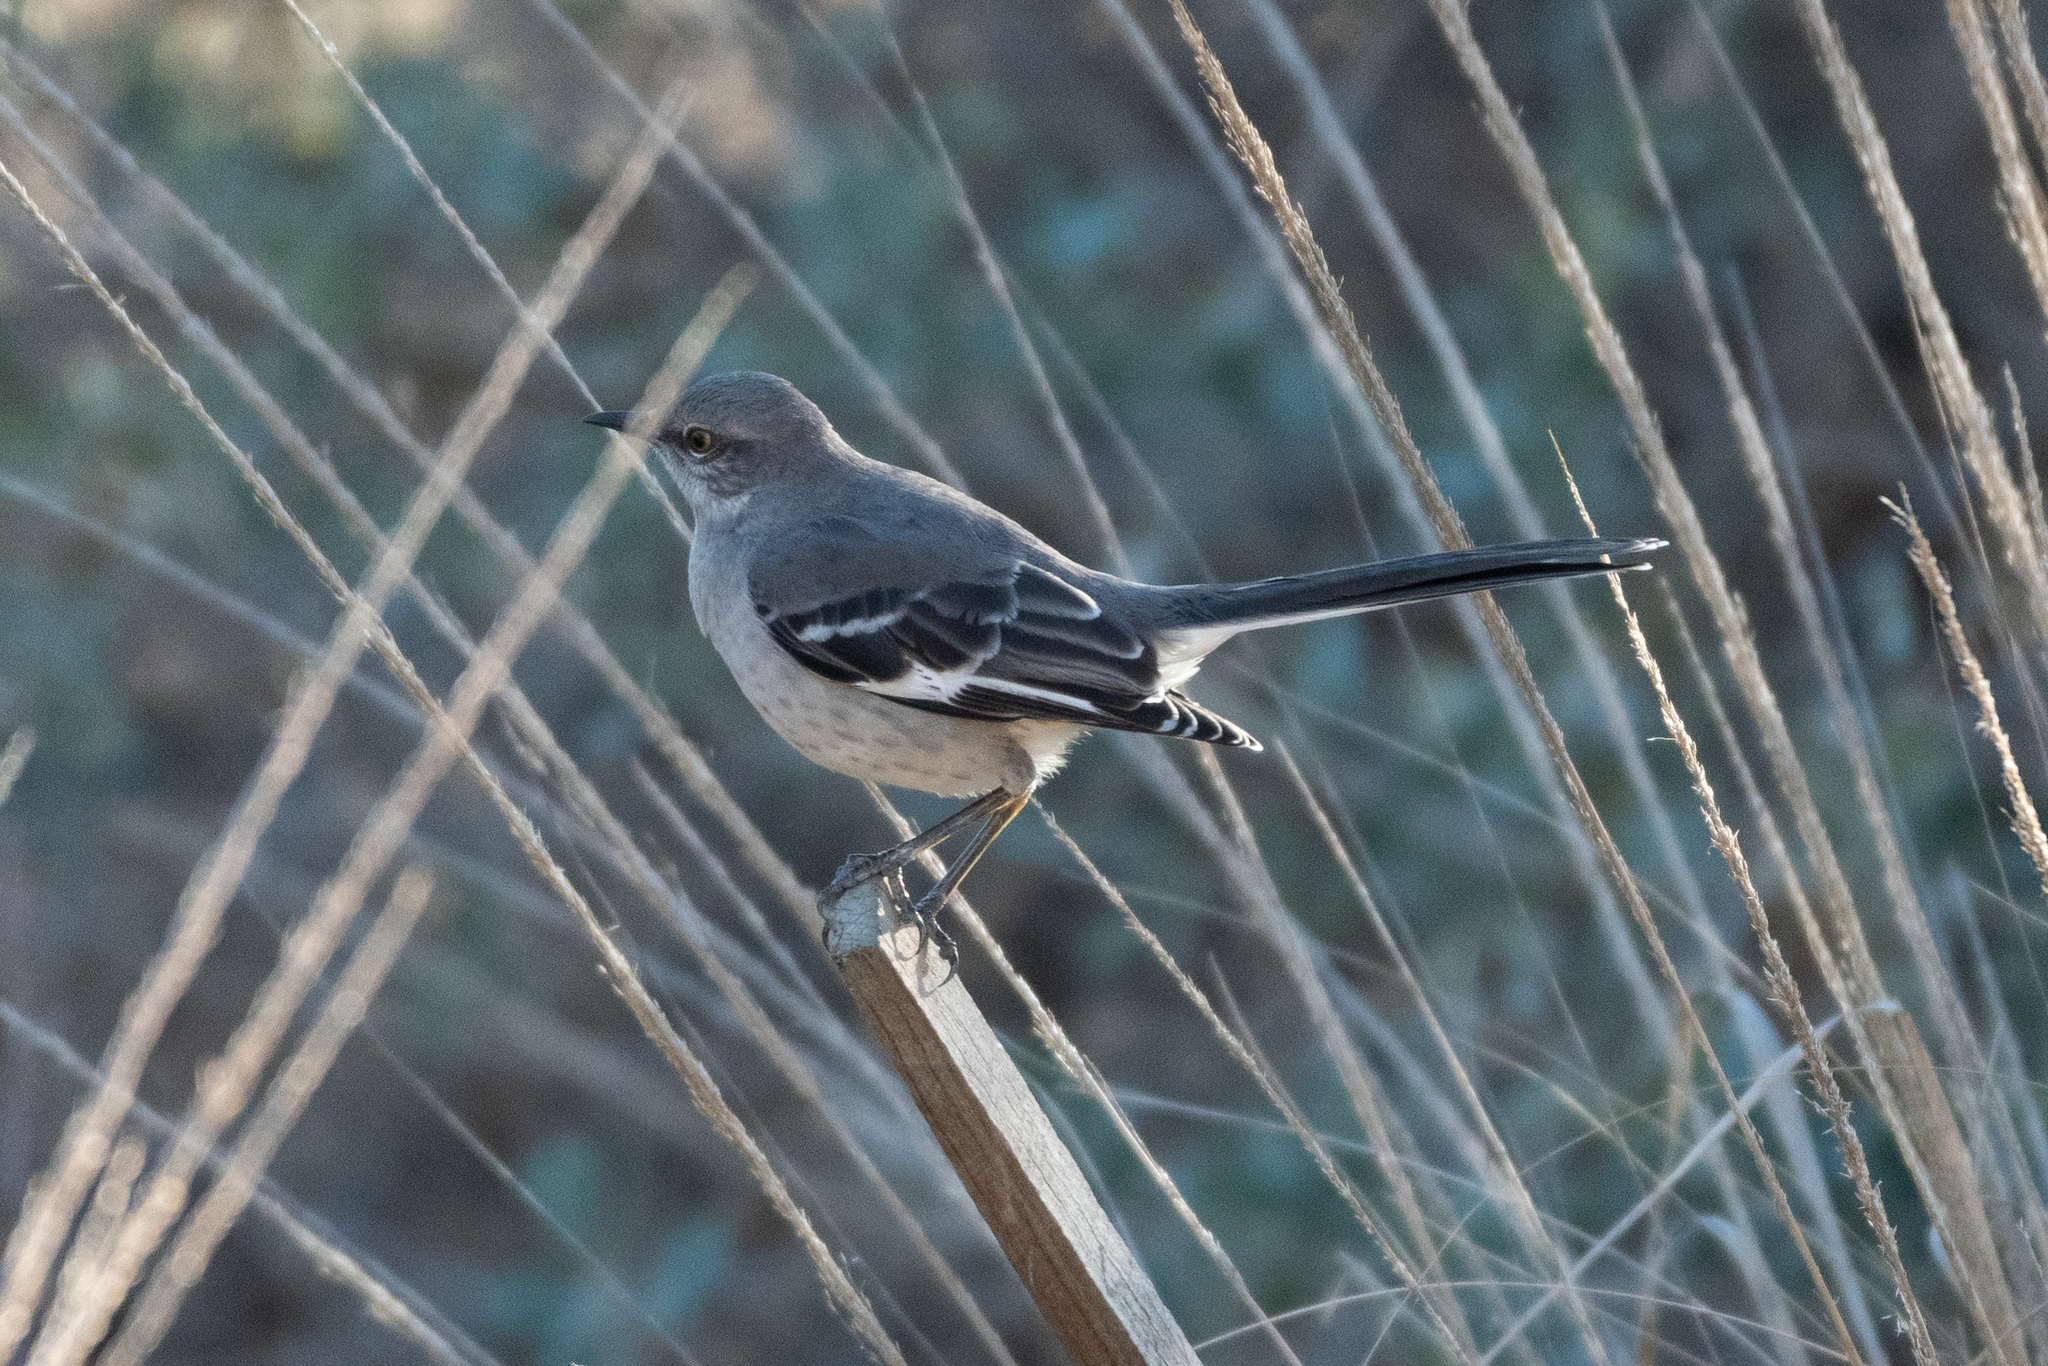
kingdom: Animalia
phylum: Chordata
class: Aves
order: Passeriformes
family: Mimidae
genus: Mimus
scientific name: Mimus polyglottos
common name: Northern mockingbird
